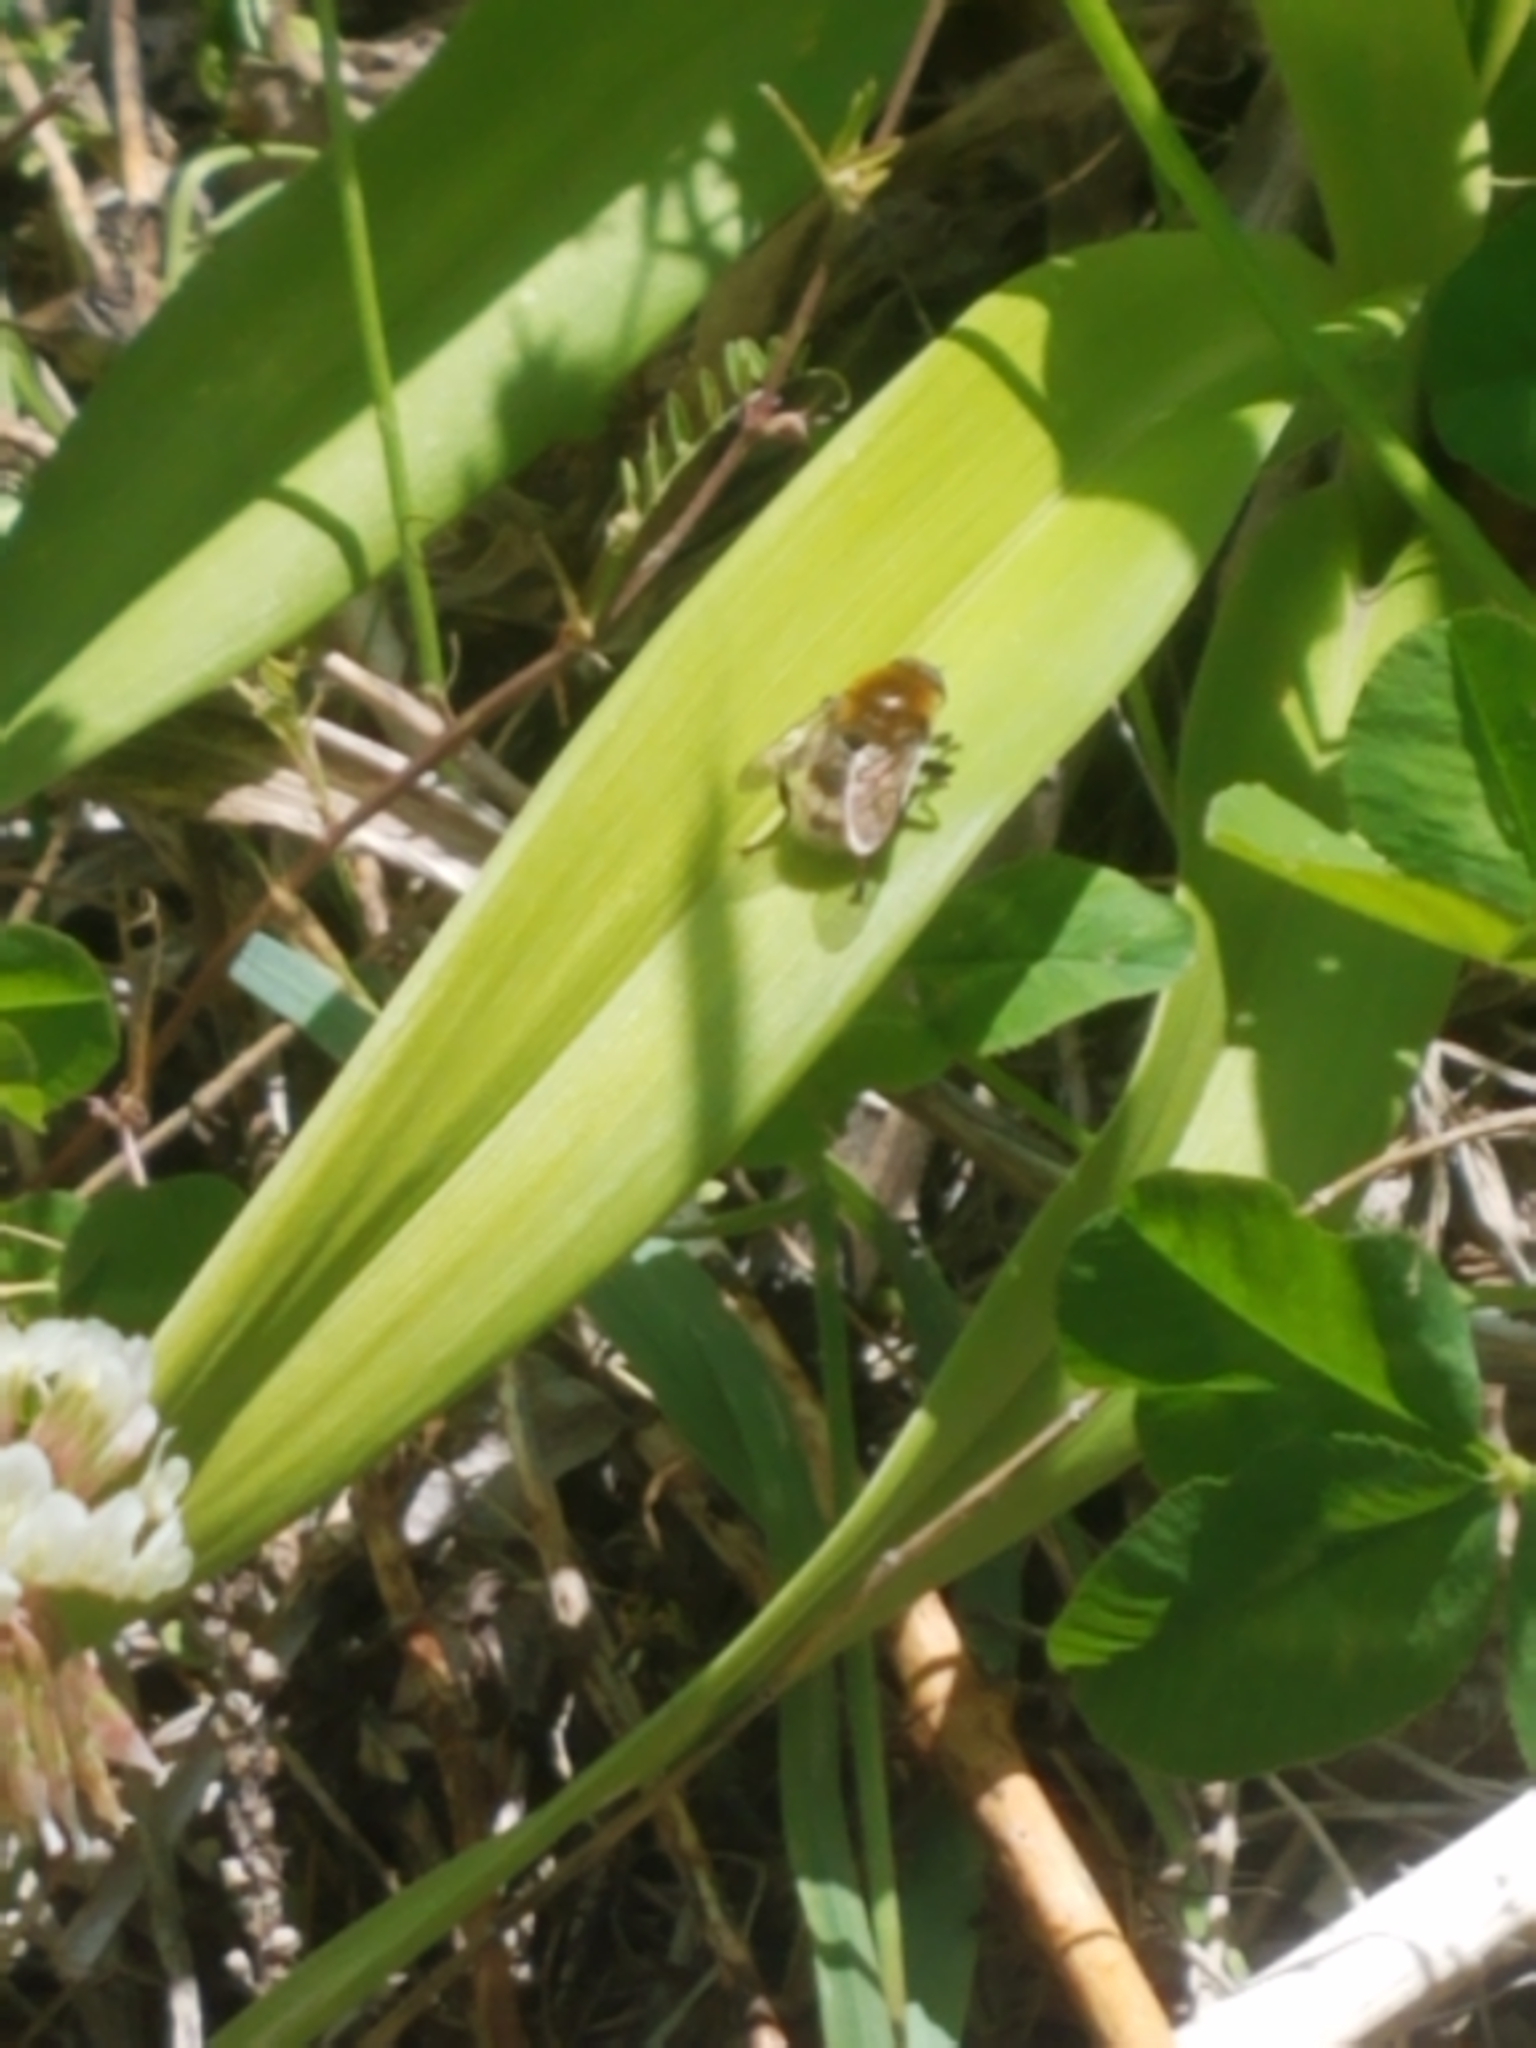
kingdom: Animalia
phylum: Arthropoda
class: Insecta
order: Diptera
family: Syrphidae
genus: Merodon
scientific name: Merodon equestris
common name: Greater bulb-fly
